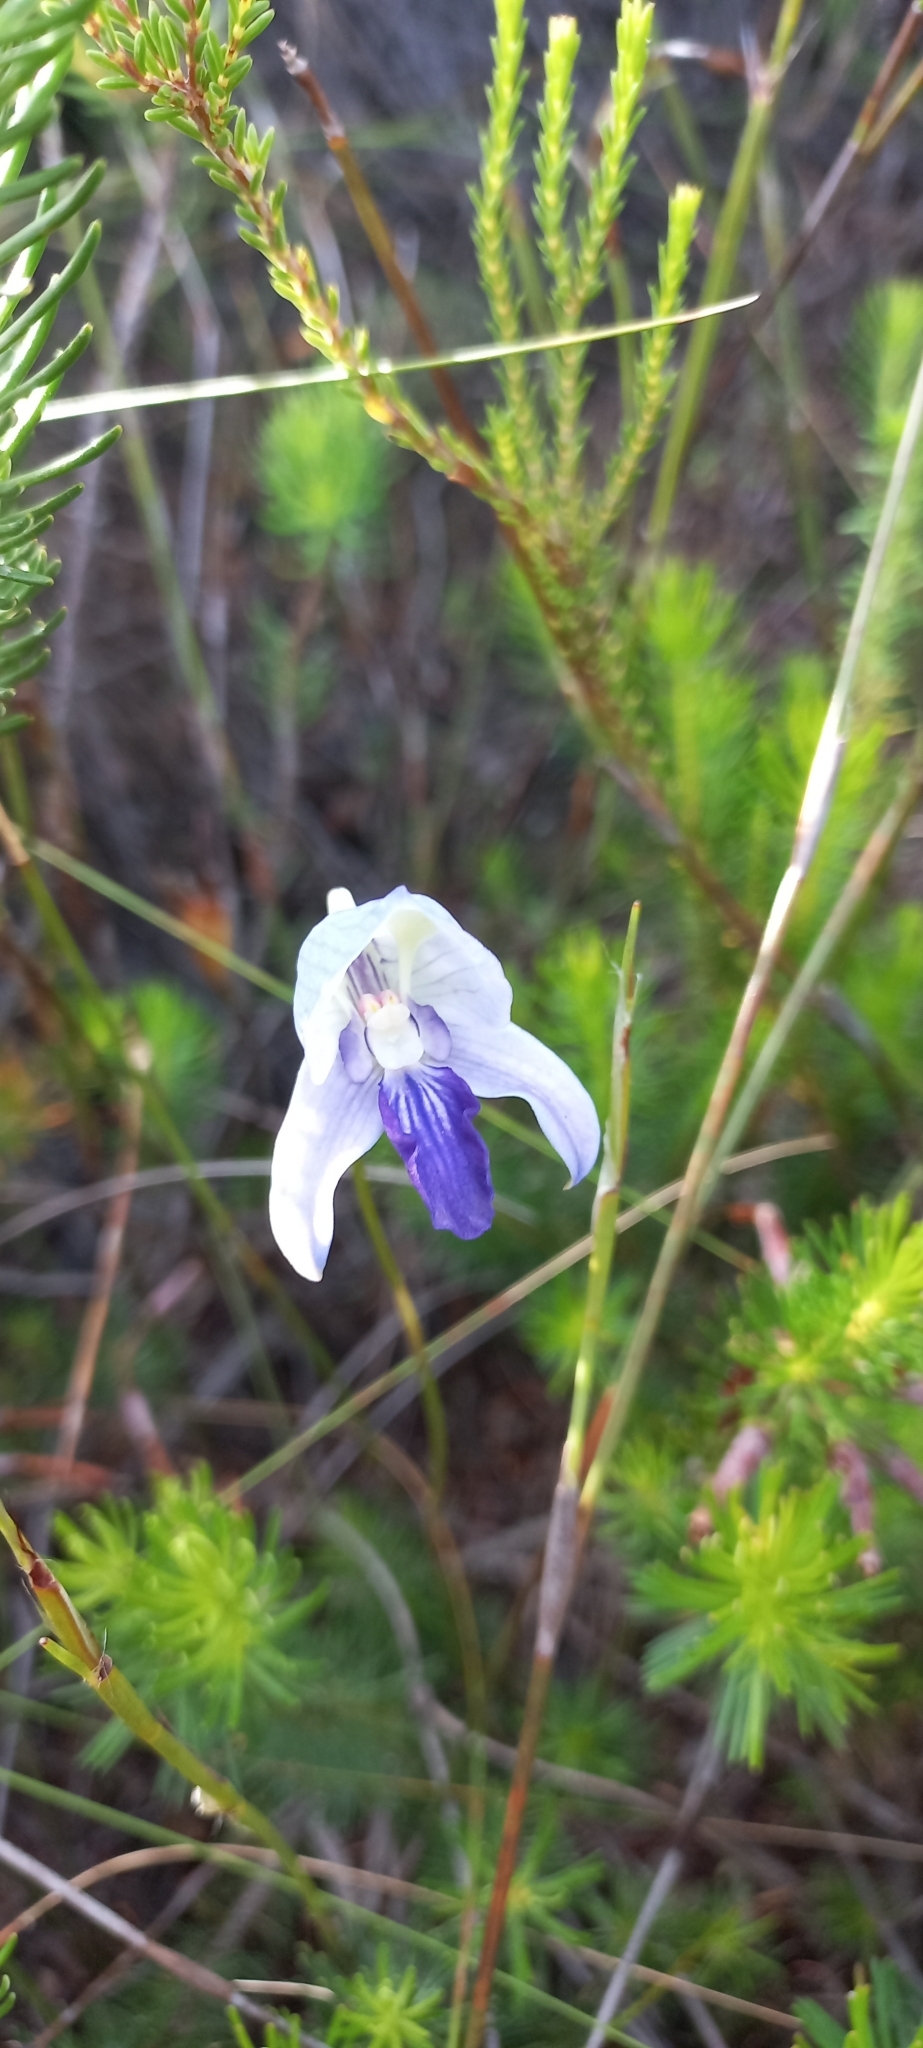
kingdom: Plantae
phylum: Tracheophyta
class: Liliopsida
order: Asparagales
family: Orchidaceae
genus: Disa
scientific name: Disa purpurascens
